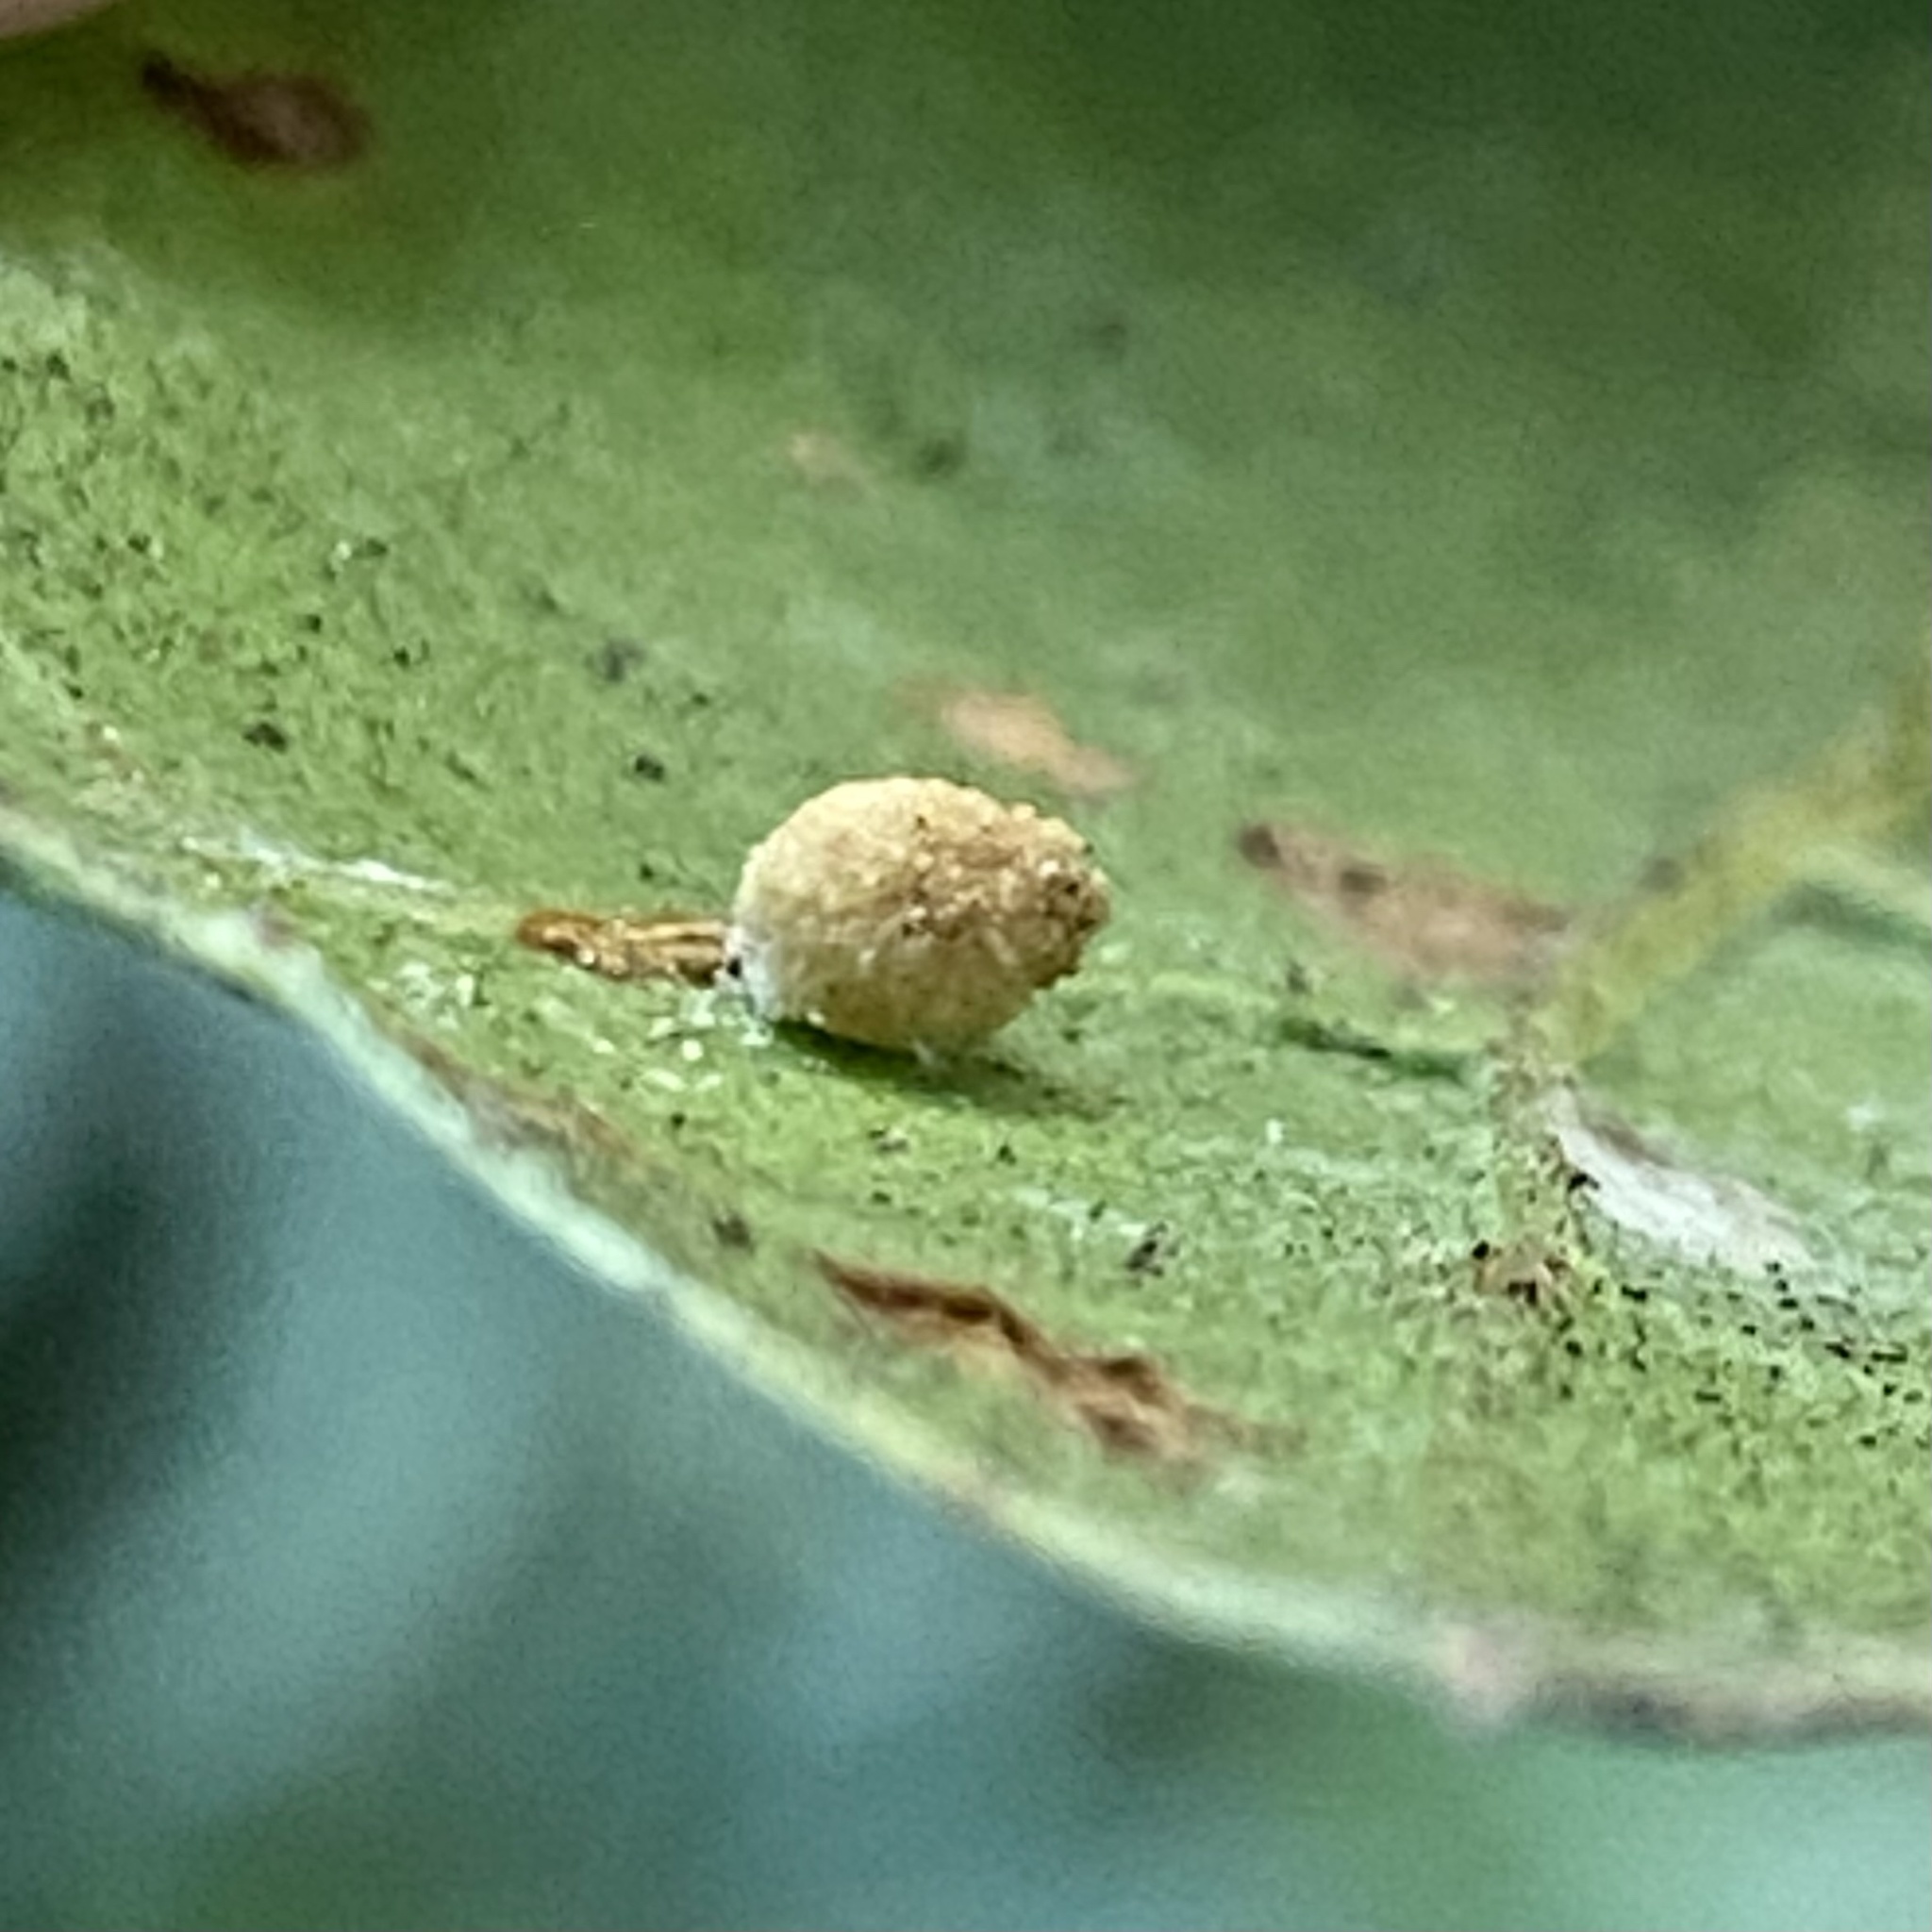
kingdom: Animalia
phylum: Arthropoda
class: Insecta
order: Hymenoptera
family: Cynipidae
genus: Dryocosmus
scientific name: Dryocosmus
